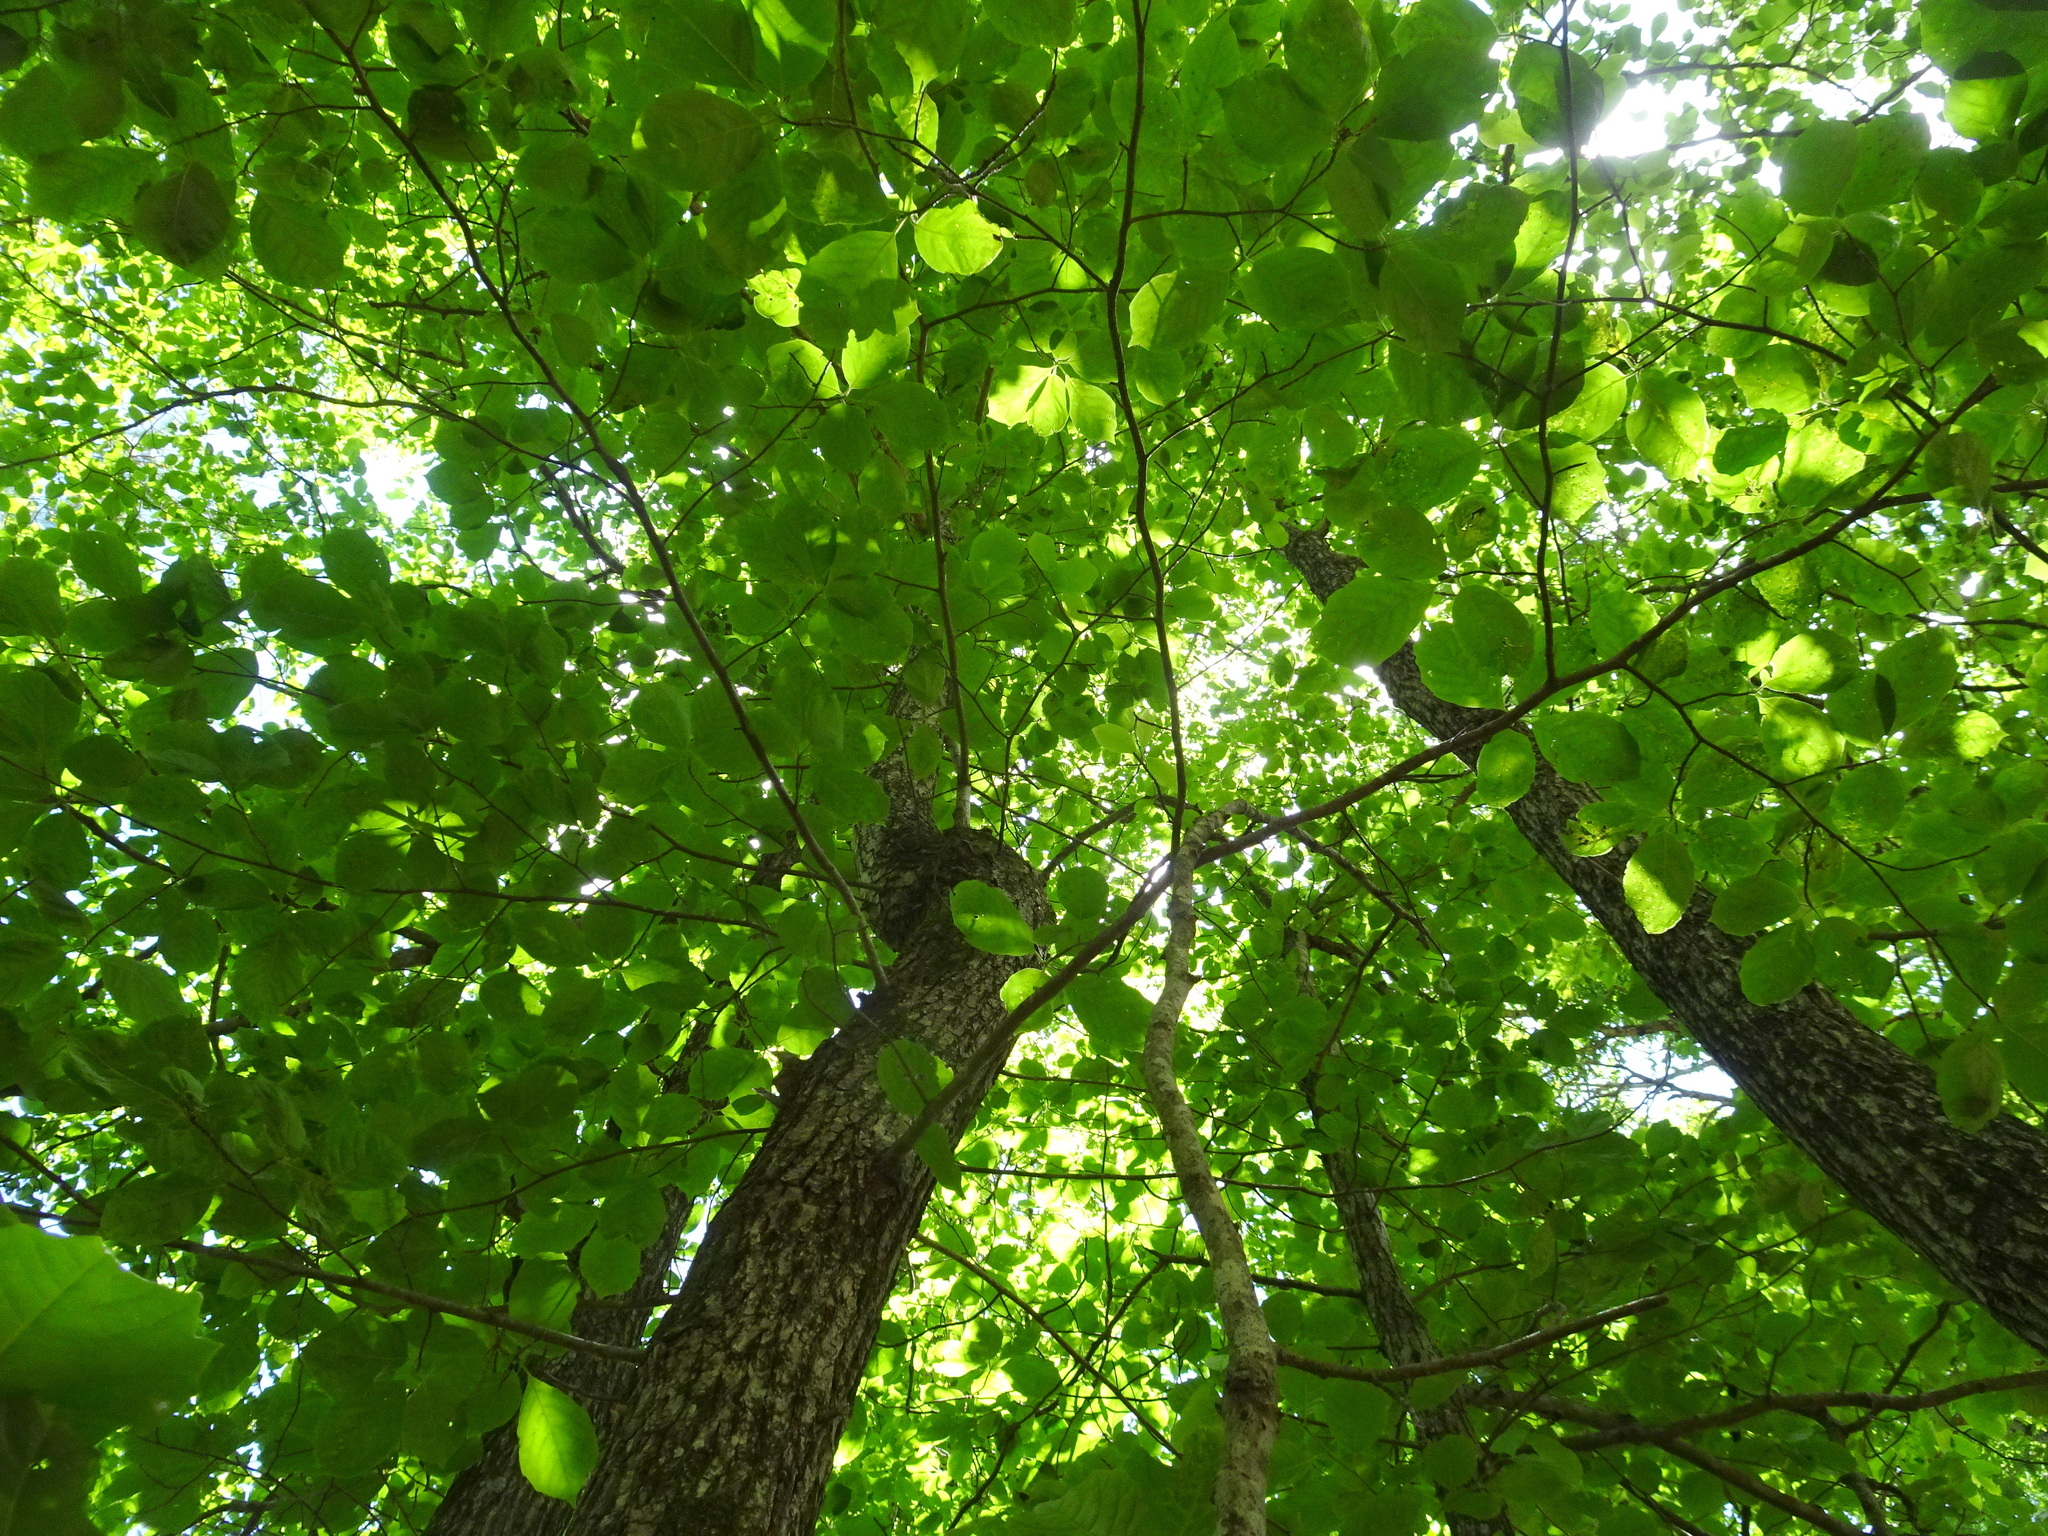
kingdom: Plantae
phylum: Tracheophyta
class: Magnoliopsida
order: Cornales
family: Nyssaceae
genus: Nyssa
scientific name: Nyssa sylvatica
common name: Black tupelo
